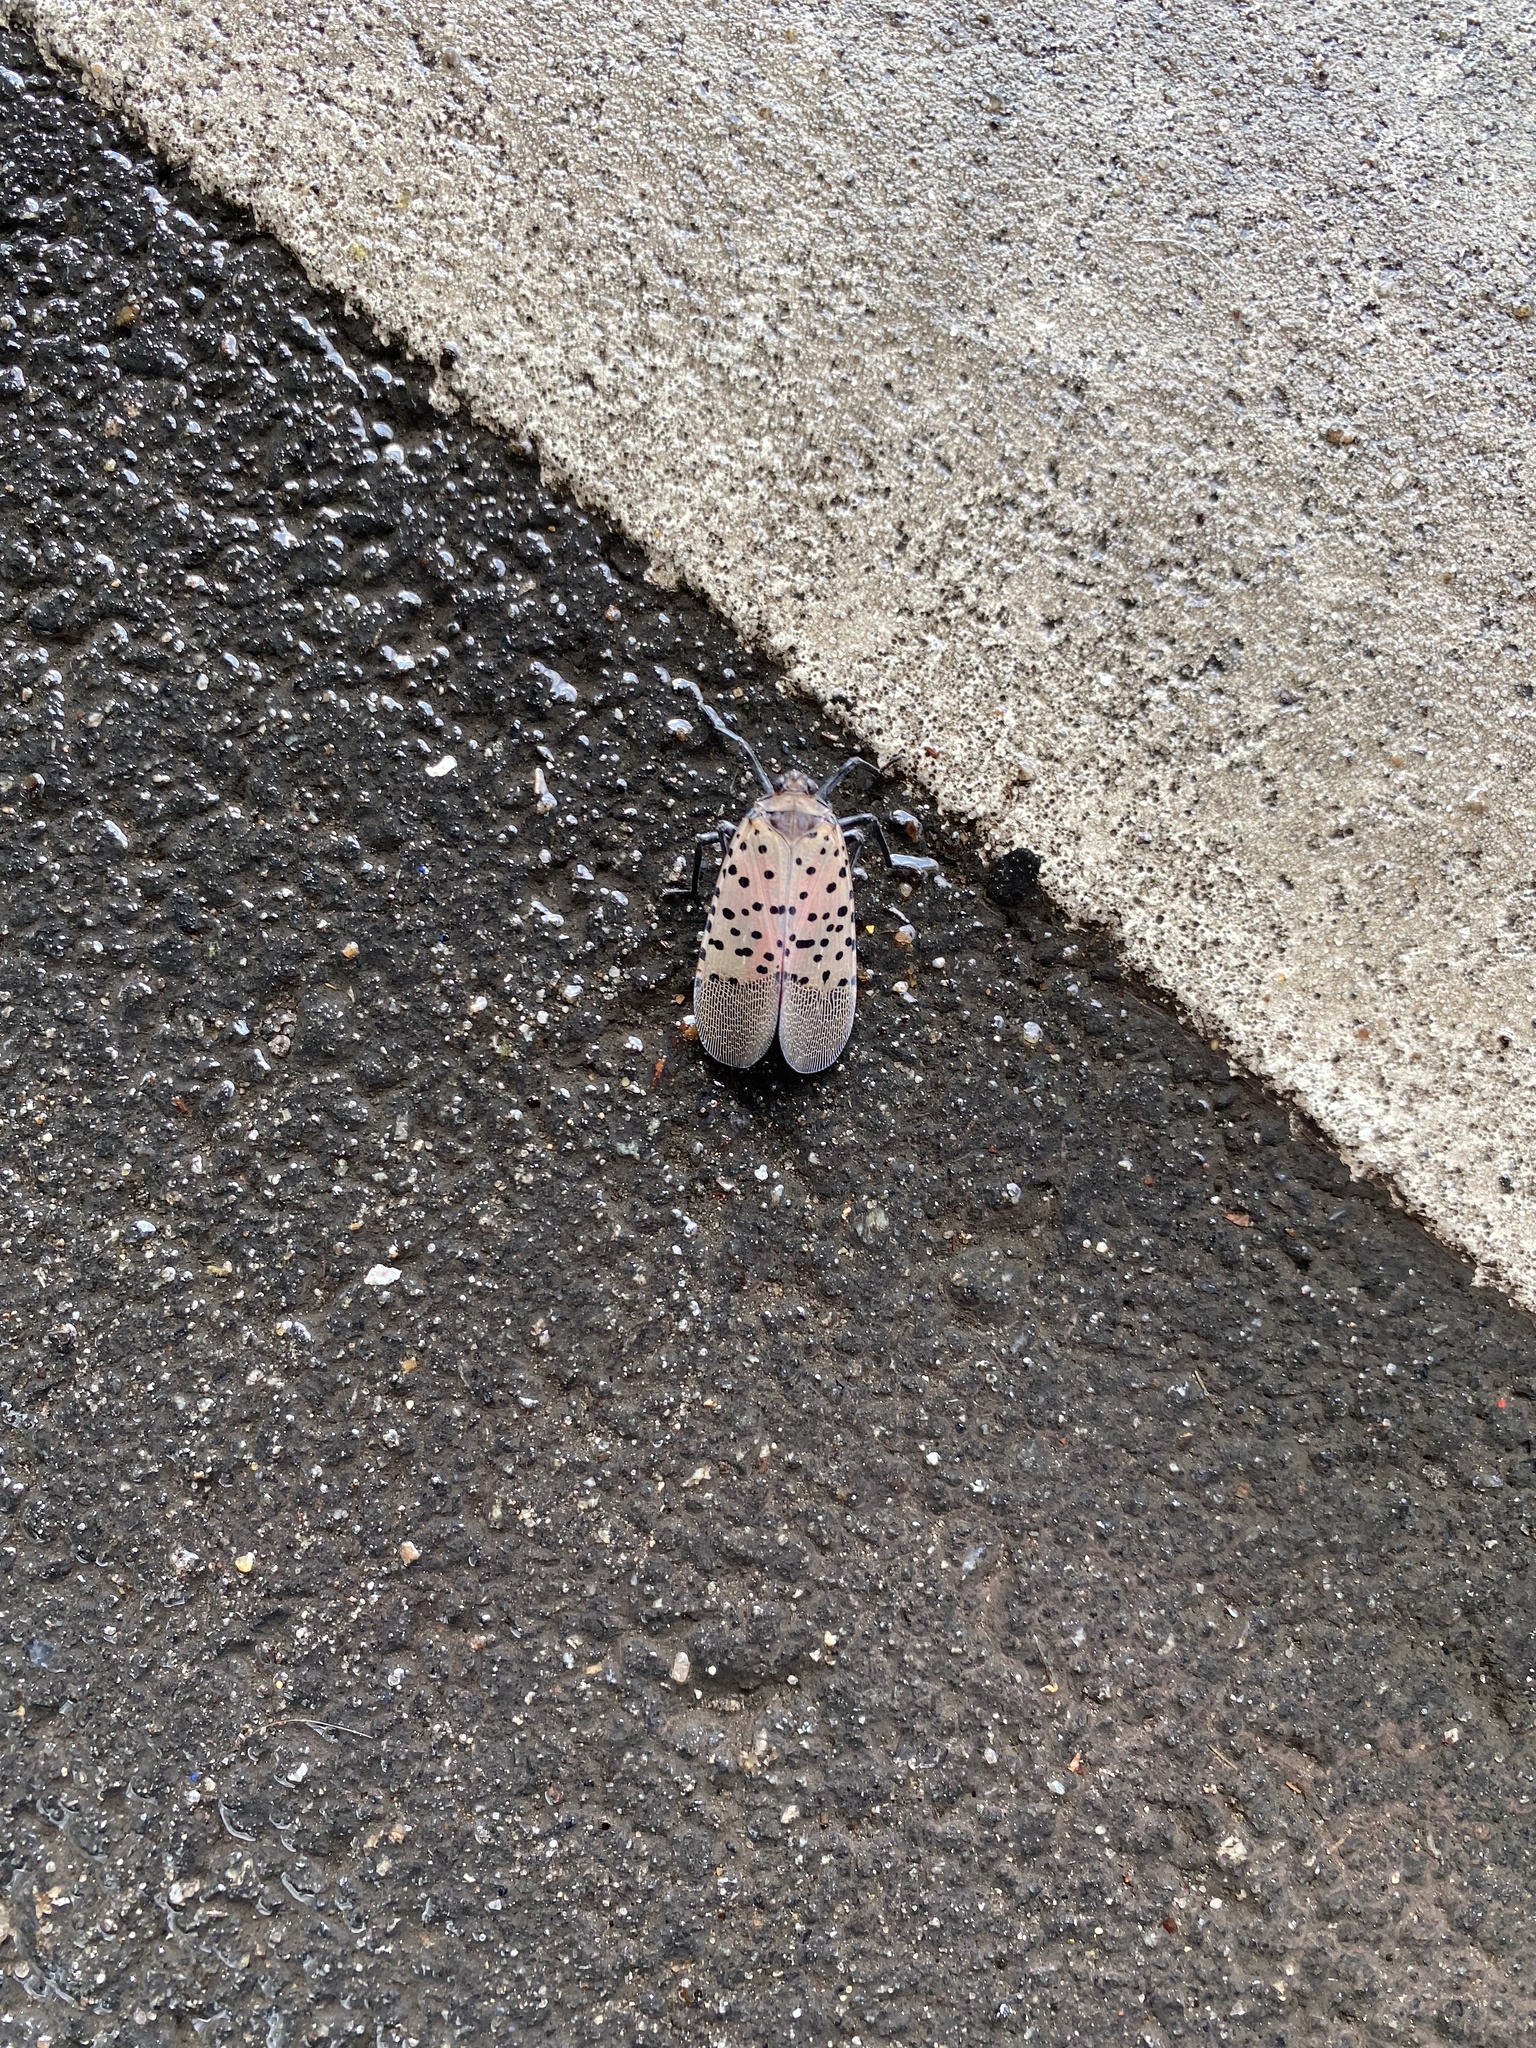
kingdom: Animalia
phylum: Arthropoda
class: Insecta
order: Hemiptera
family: Fulgoridae
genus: Lycorma
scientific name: Lycorma delicatula
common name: Spotted lanternfly
